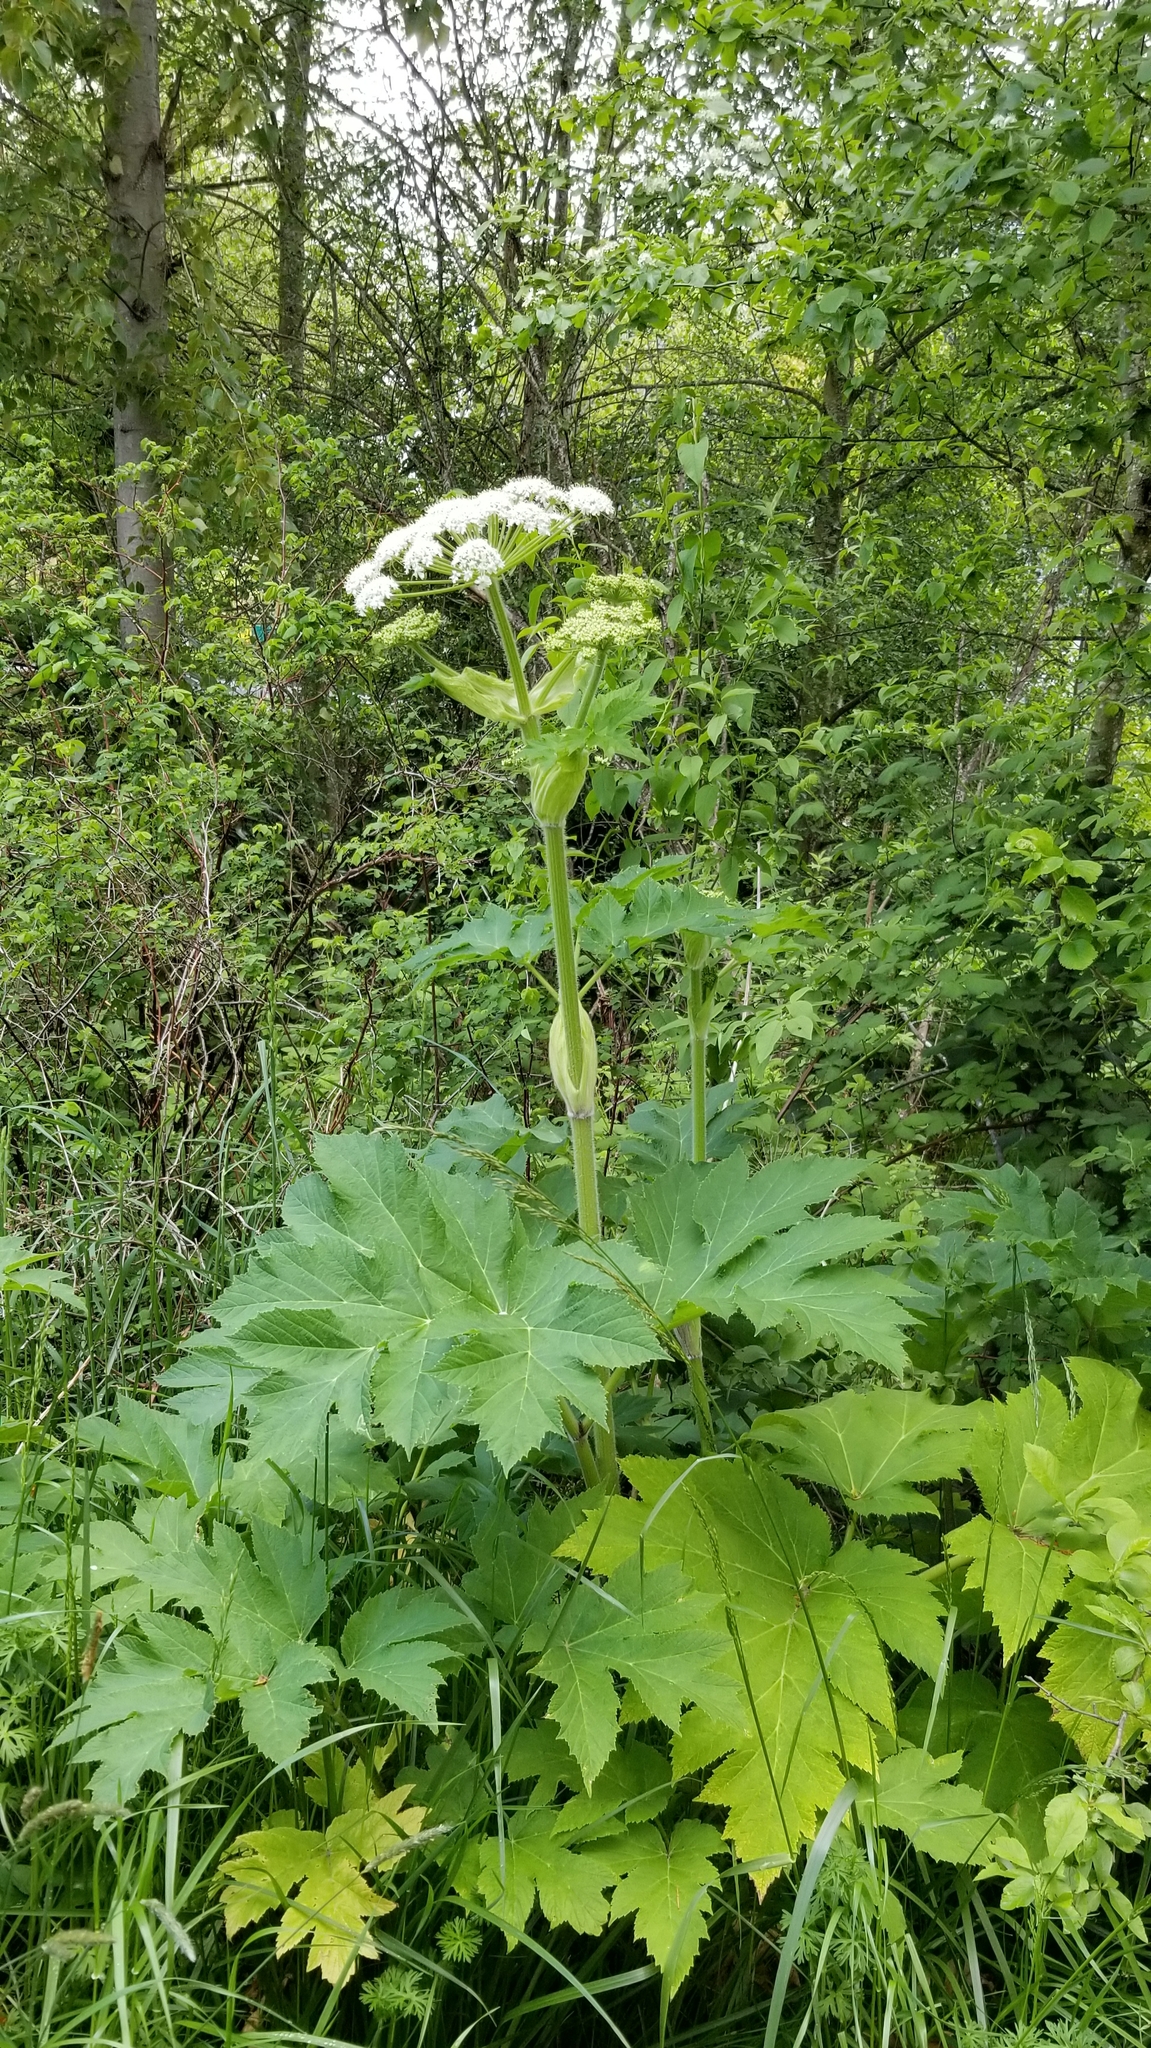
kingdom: Plantae
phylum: Tracheophyta
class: Magnoliopsida
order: Apiales
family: Apiaceae
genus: Heracleum
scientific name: Heracleum maximum
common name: American cow parsnip
